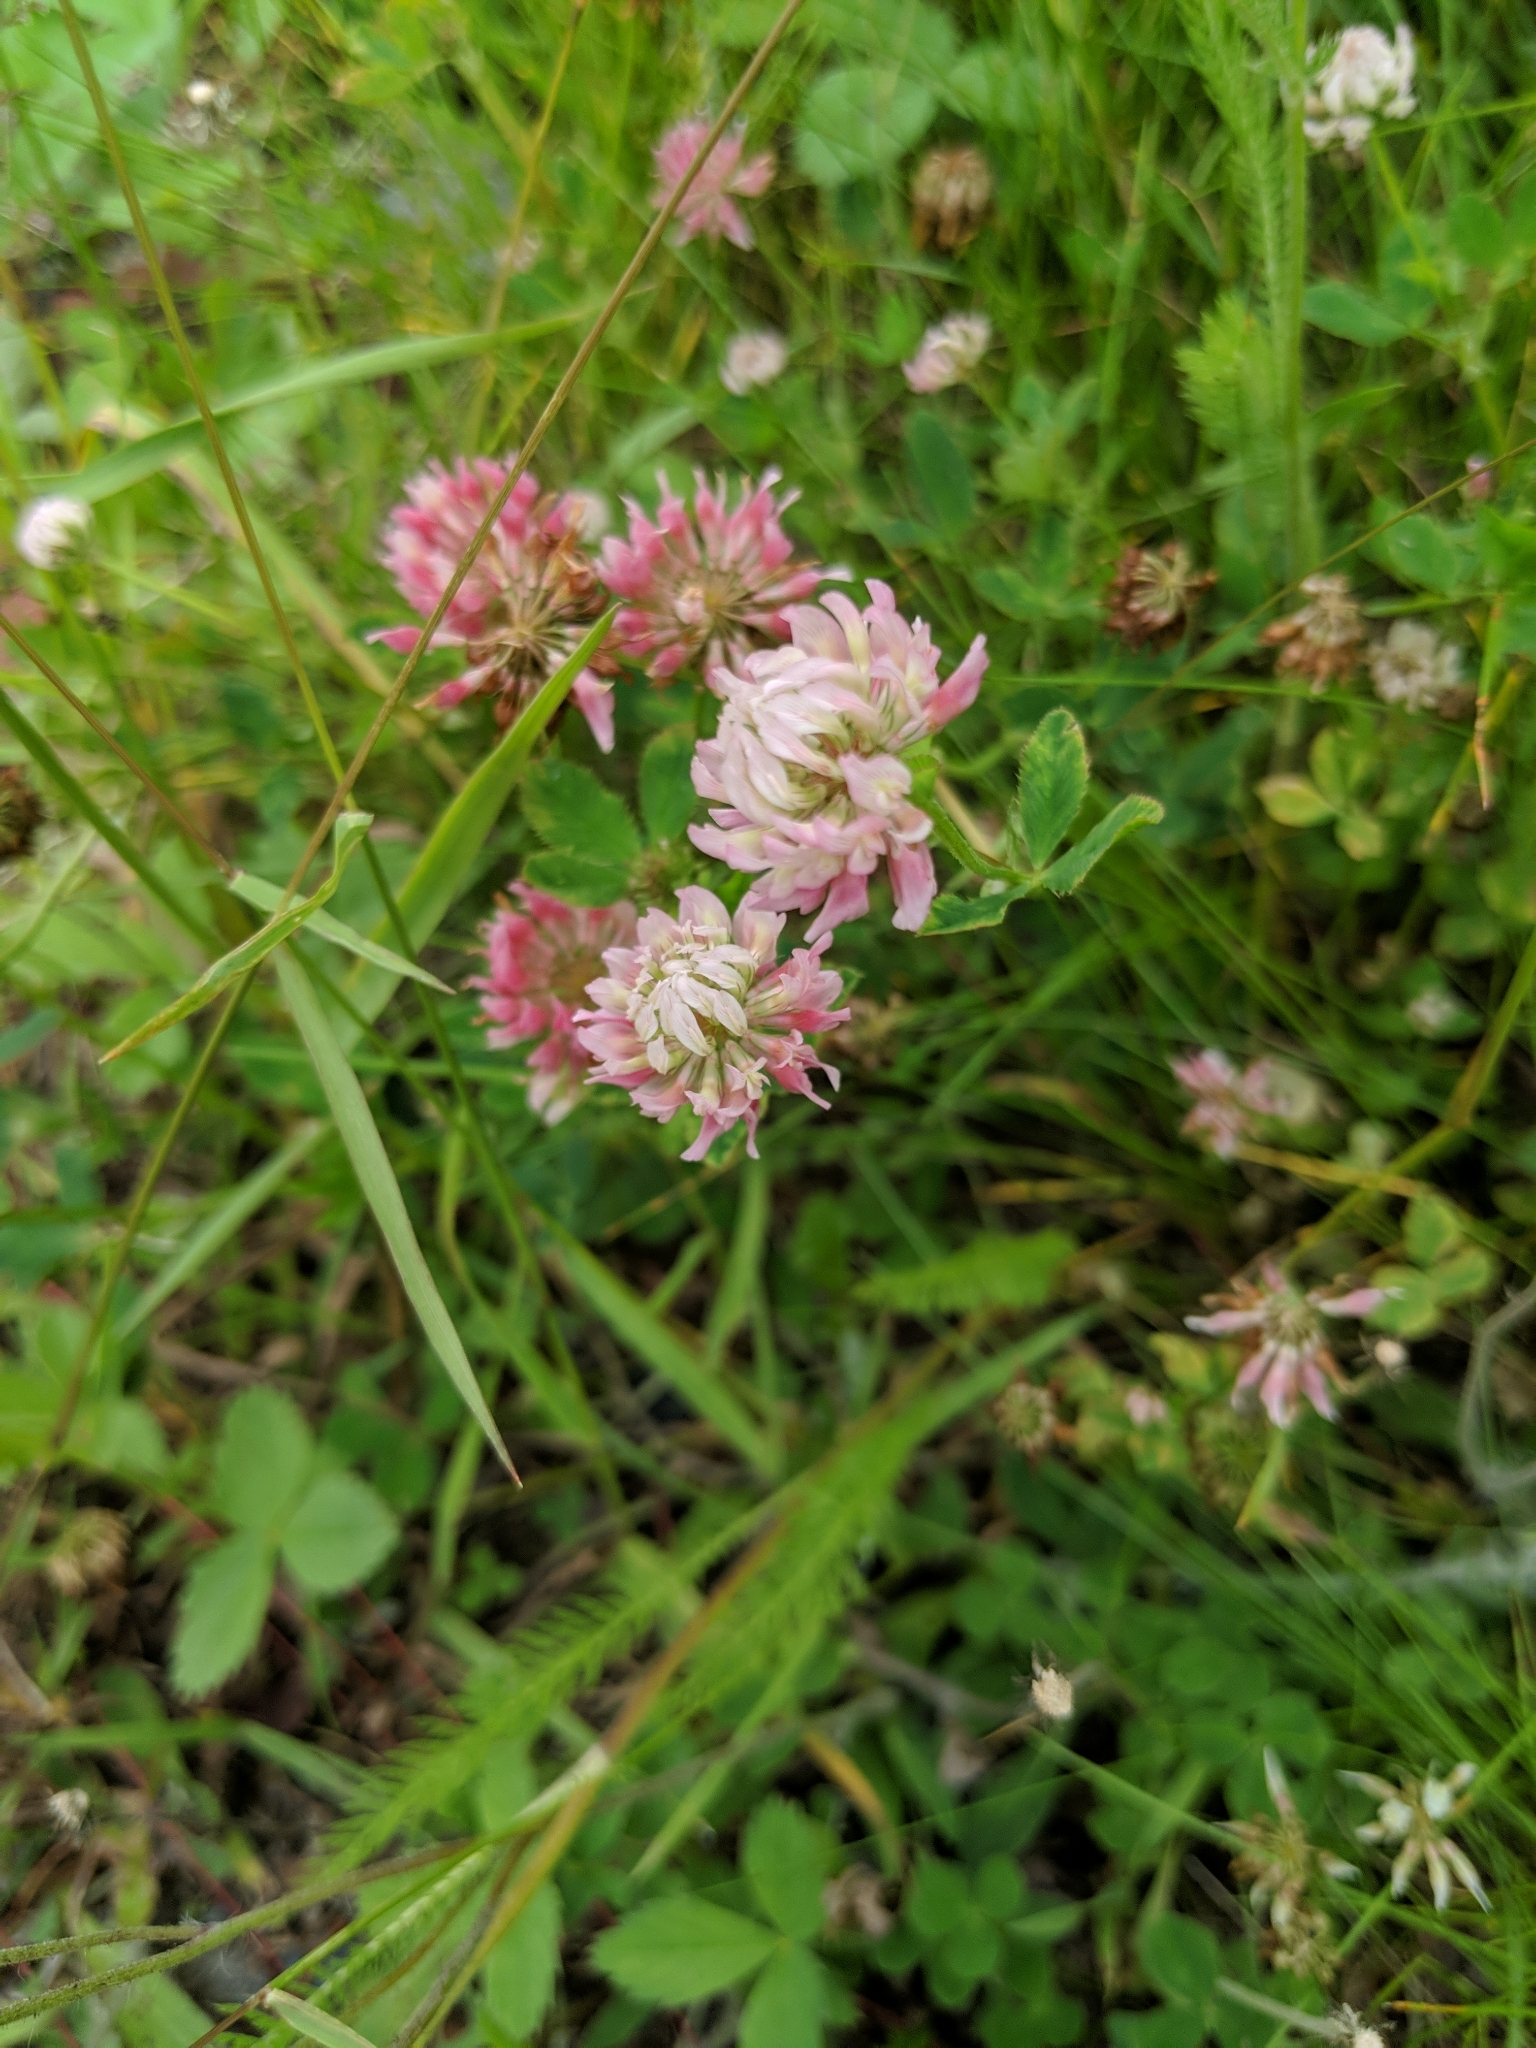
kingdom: Plantae
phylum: Tracheophyta
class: Magnoliopsida
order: Fabales
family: Fabaceae
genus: Trifolium
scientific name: Trifolium hybridum
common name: Alsike clover
